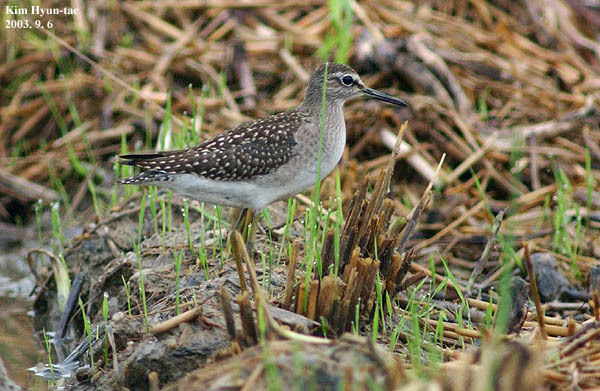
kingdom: Animalia
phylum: Chordata
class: Aves
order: Charadriiformes
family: Scolopacidae
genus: Tringa
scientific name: Tringa glareola
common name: Wood sandpiper
